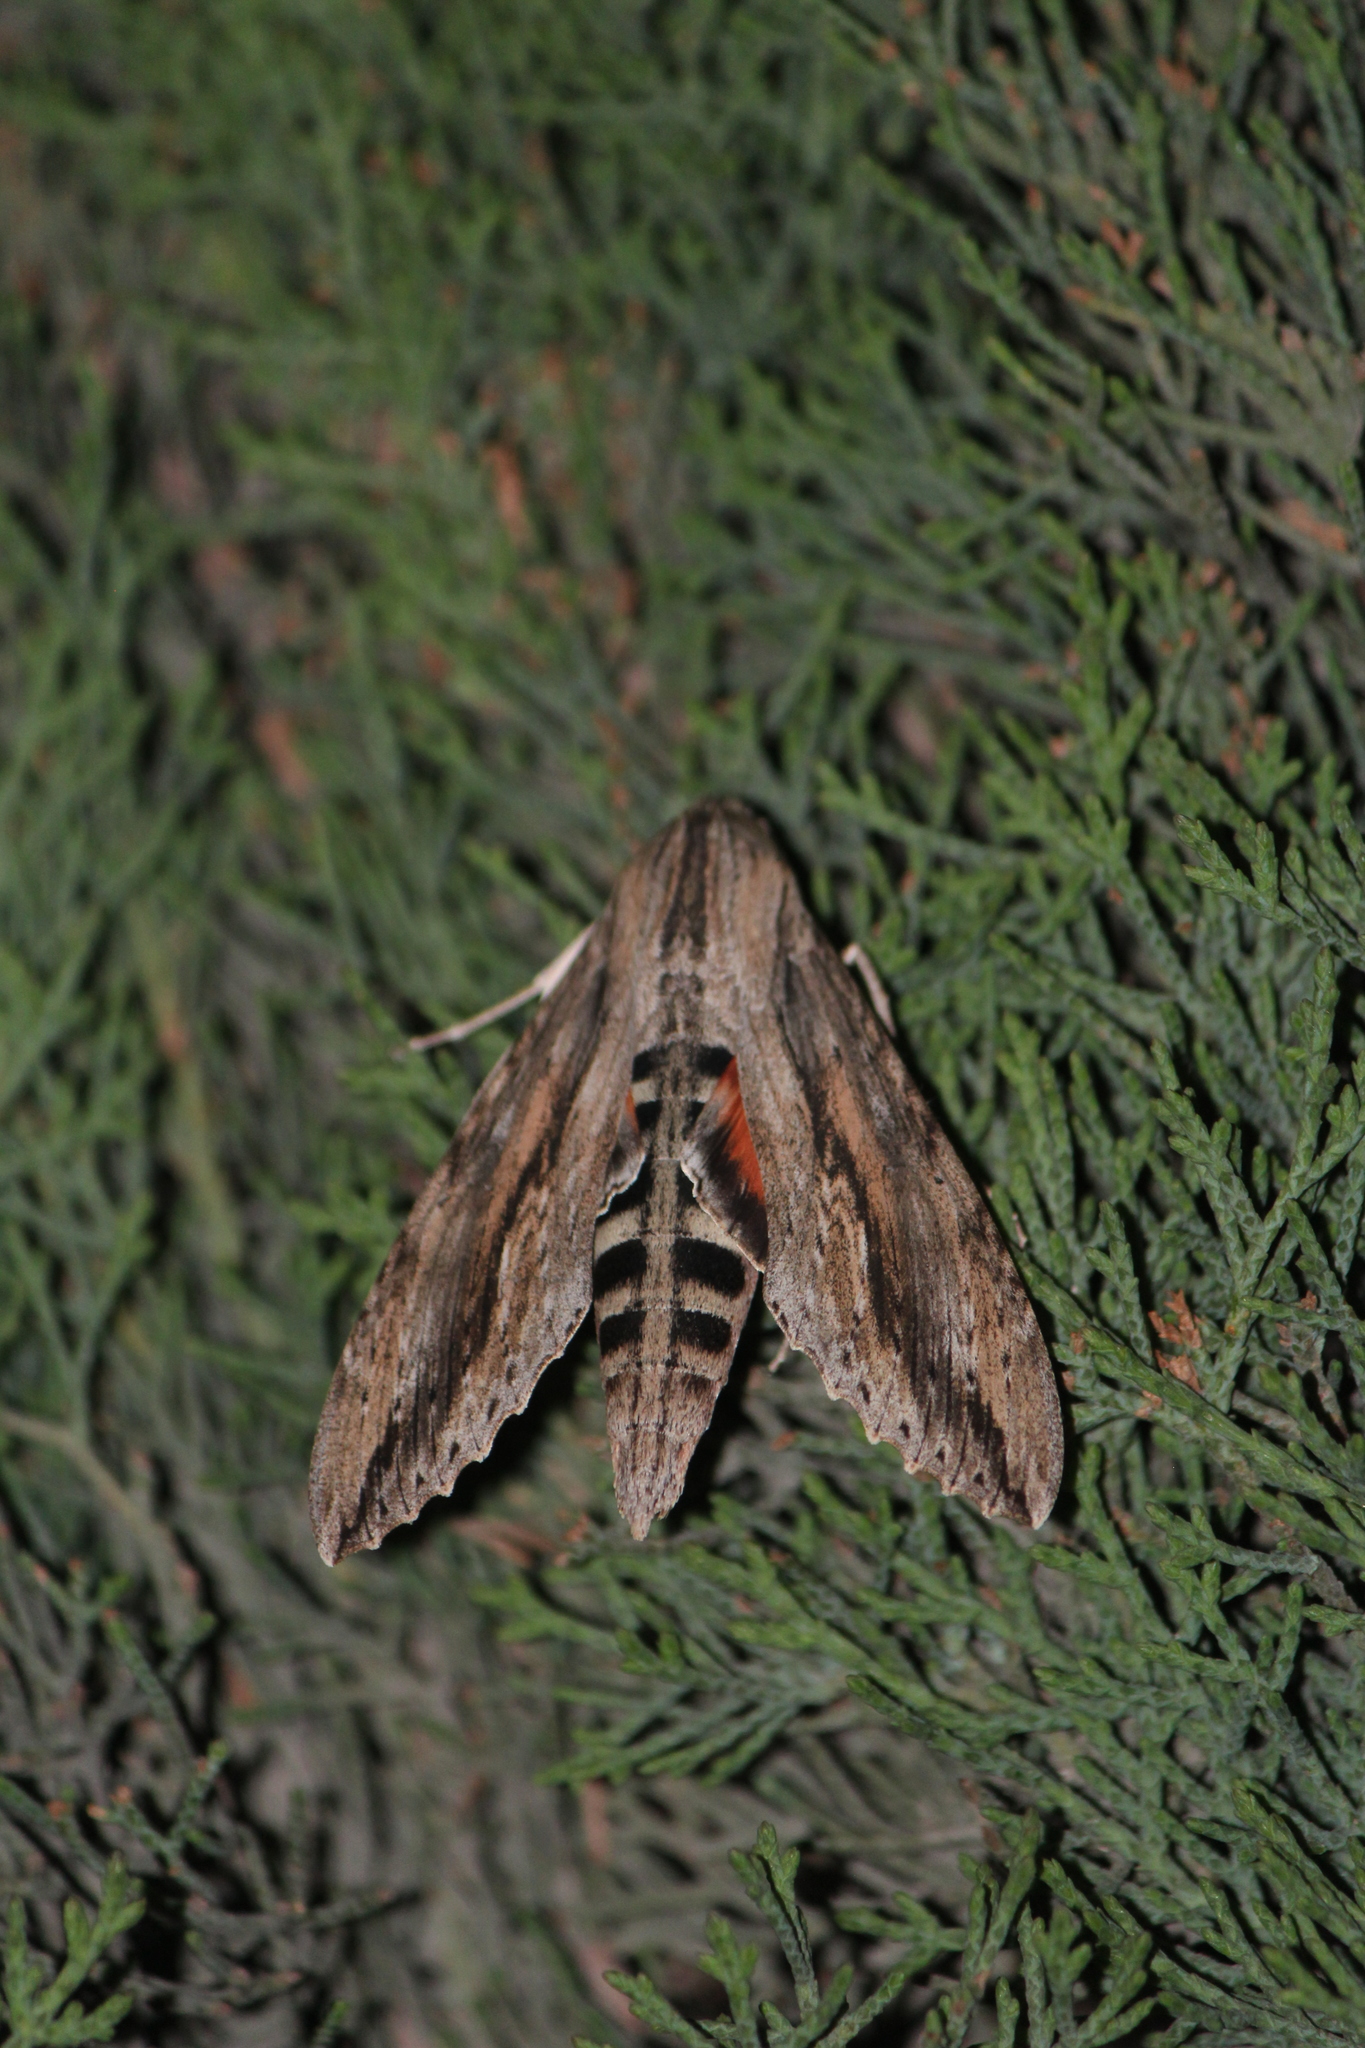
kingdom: Animalia
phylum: Arthropoda
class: Insecta
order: Lepidoptera
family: Sphingidae
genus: Erinnyis
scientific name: Erinnyis ello
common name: Ello sphinx
